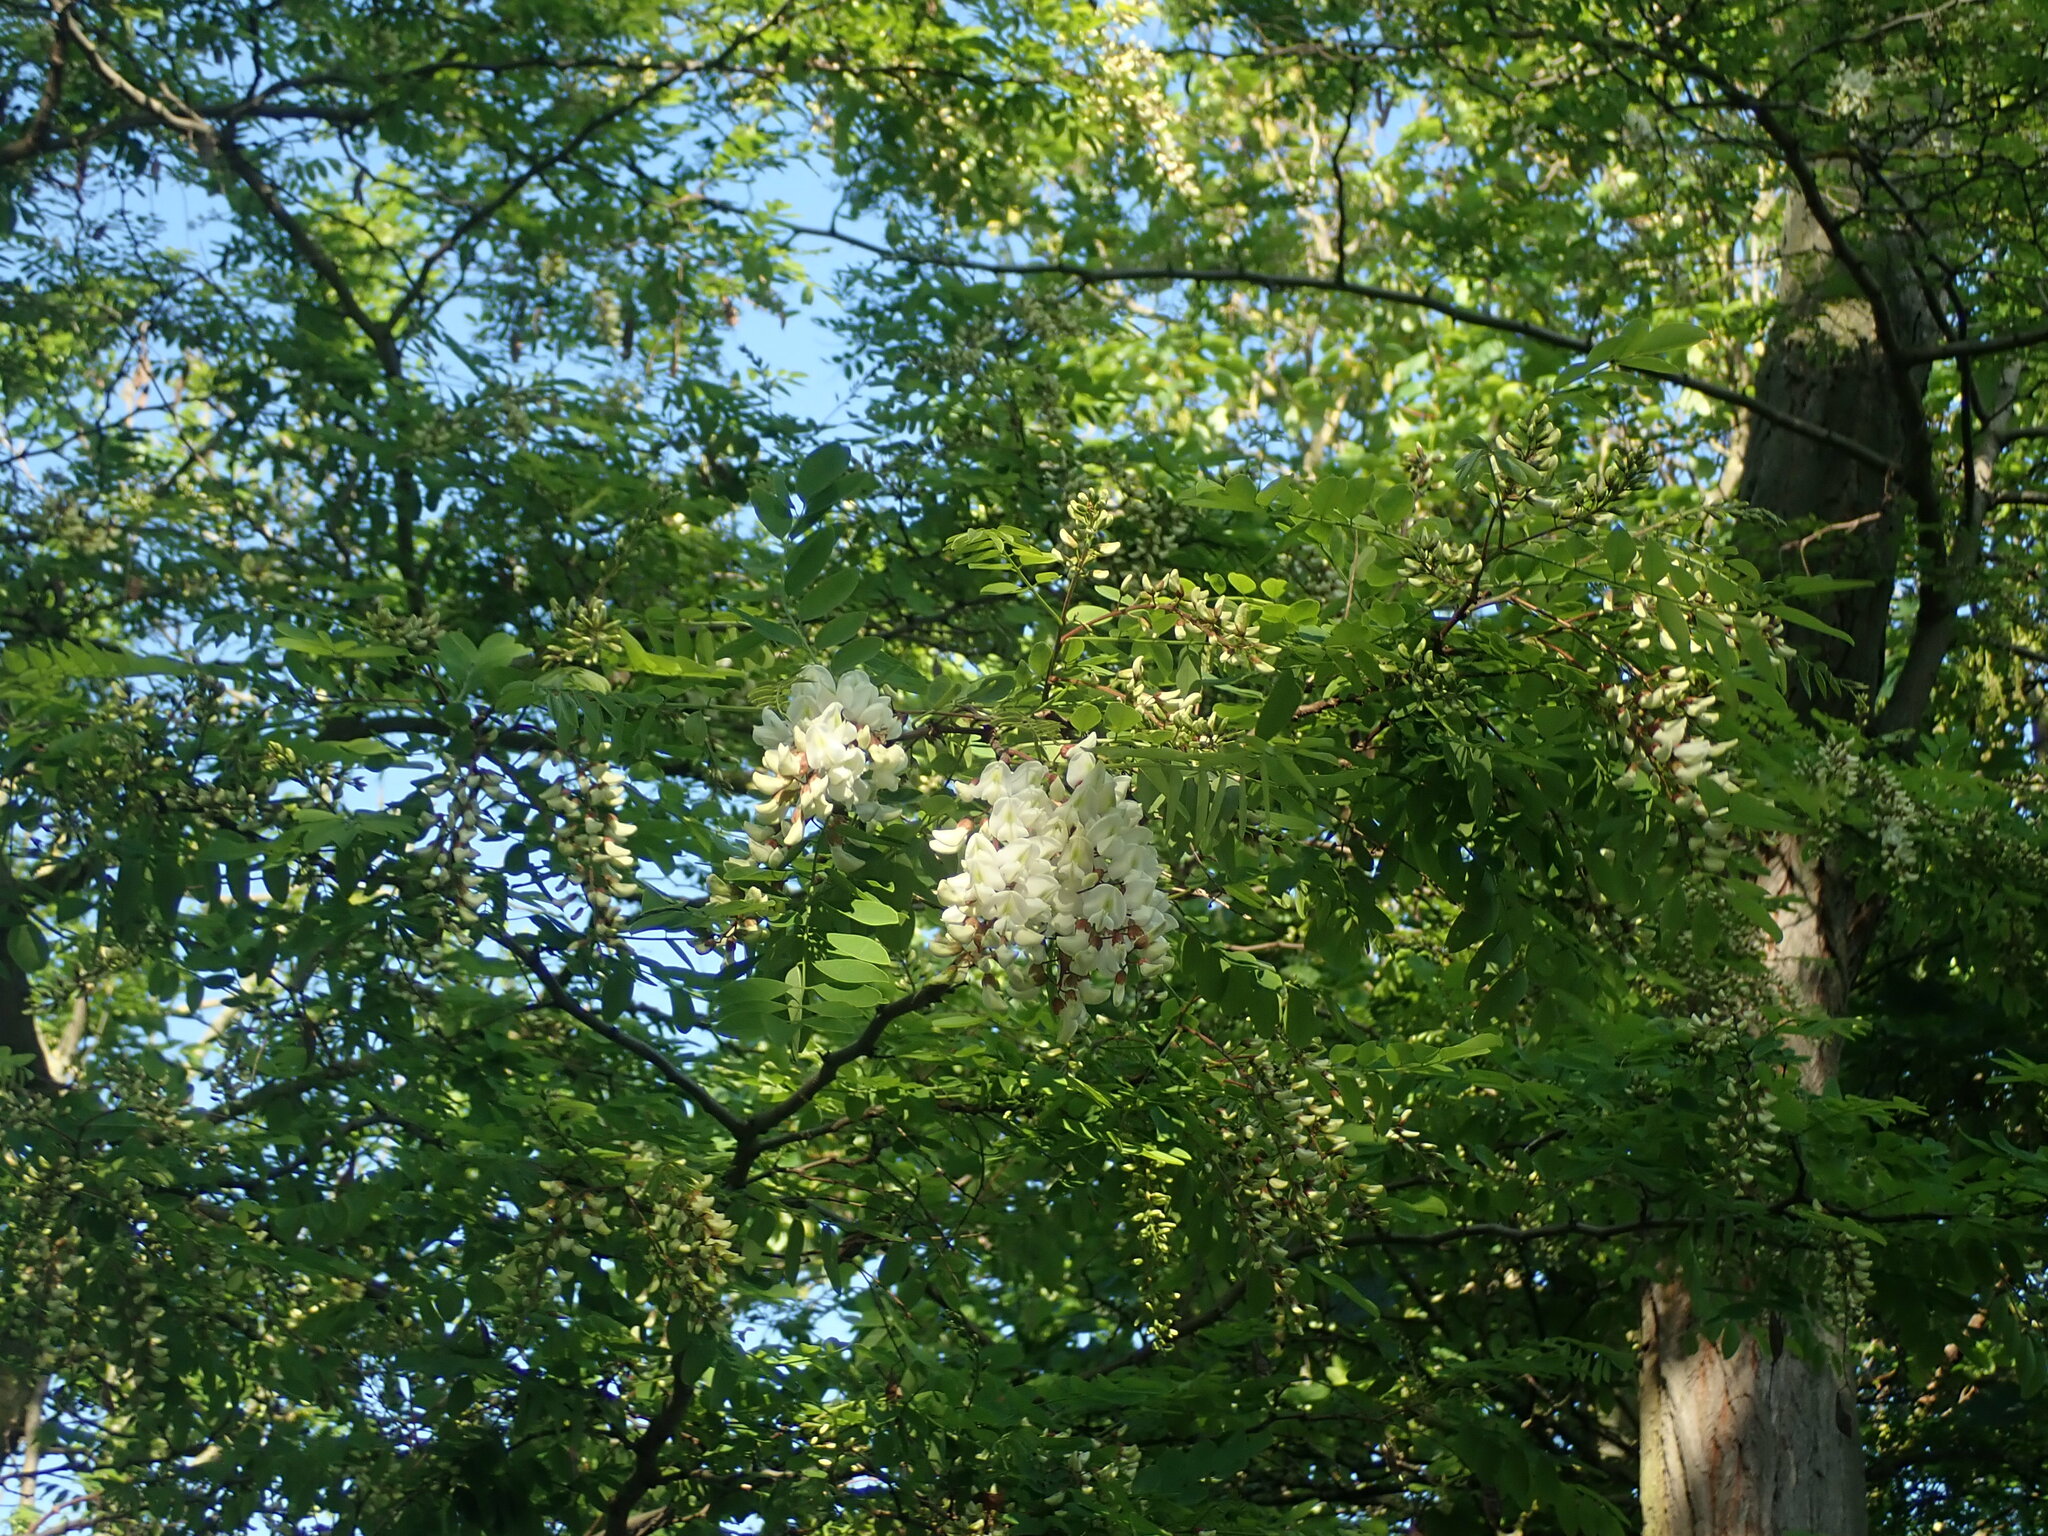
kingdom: Plantae
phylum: Tracheophyta
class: Magnoliopsida
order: Fabales
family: Fabaceae
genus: Robinia
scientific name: Robinia pseudoacacia
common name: Black locust
